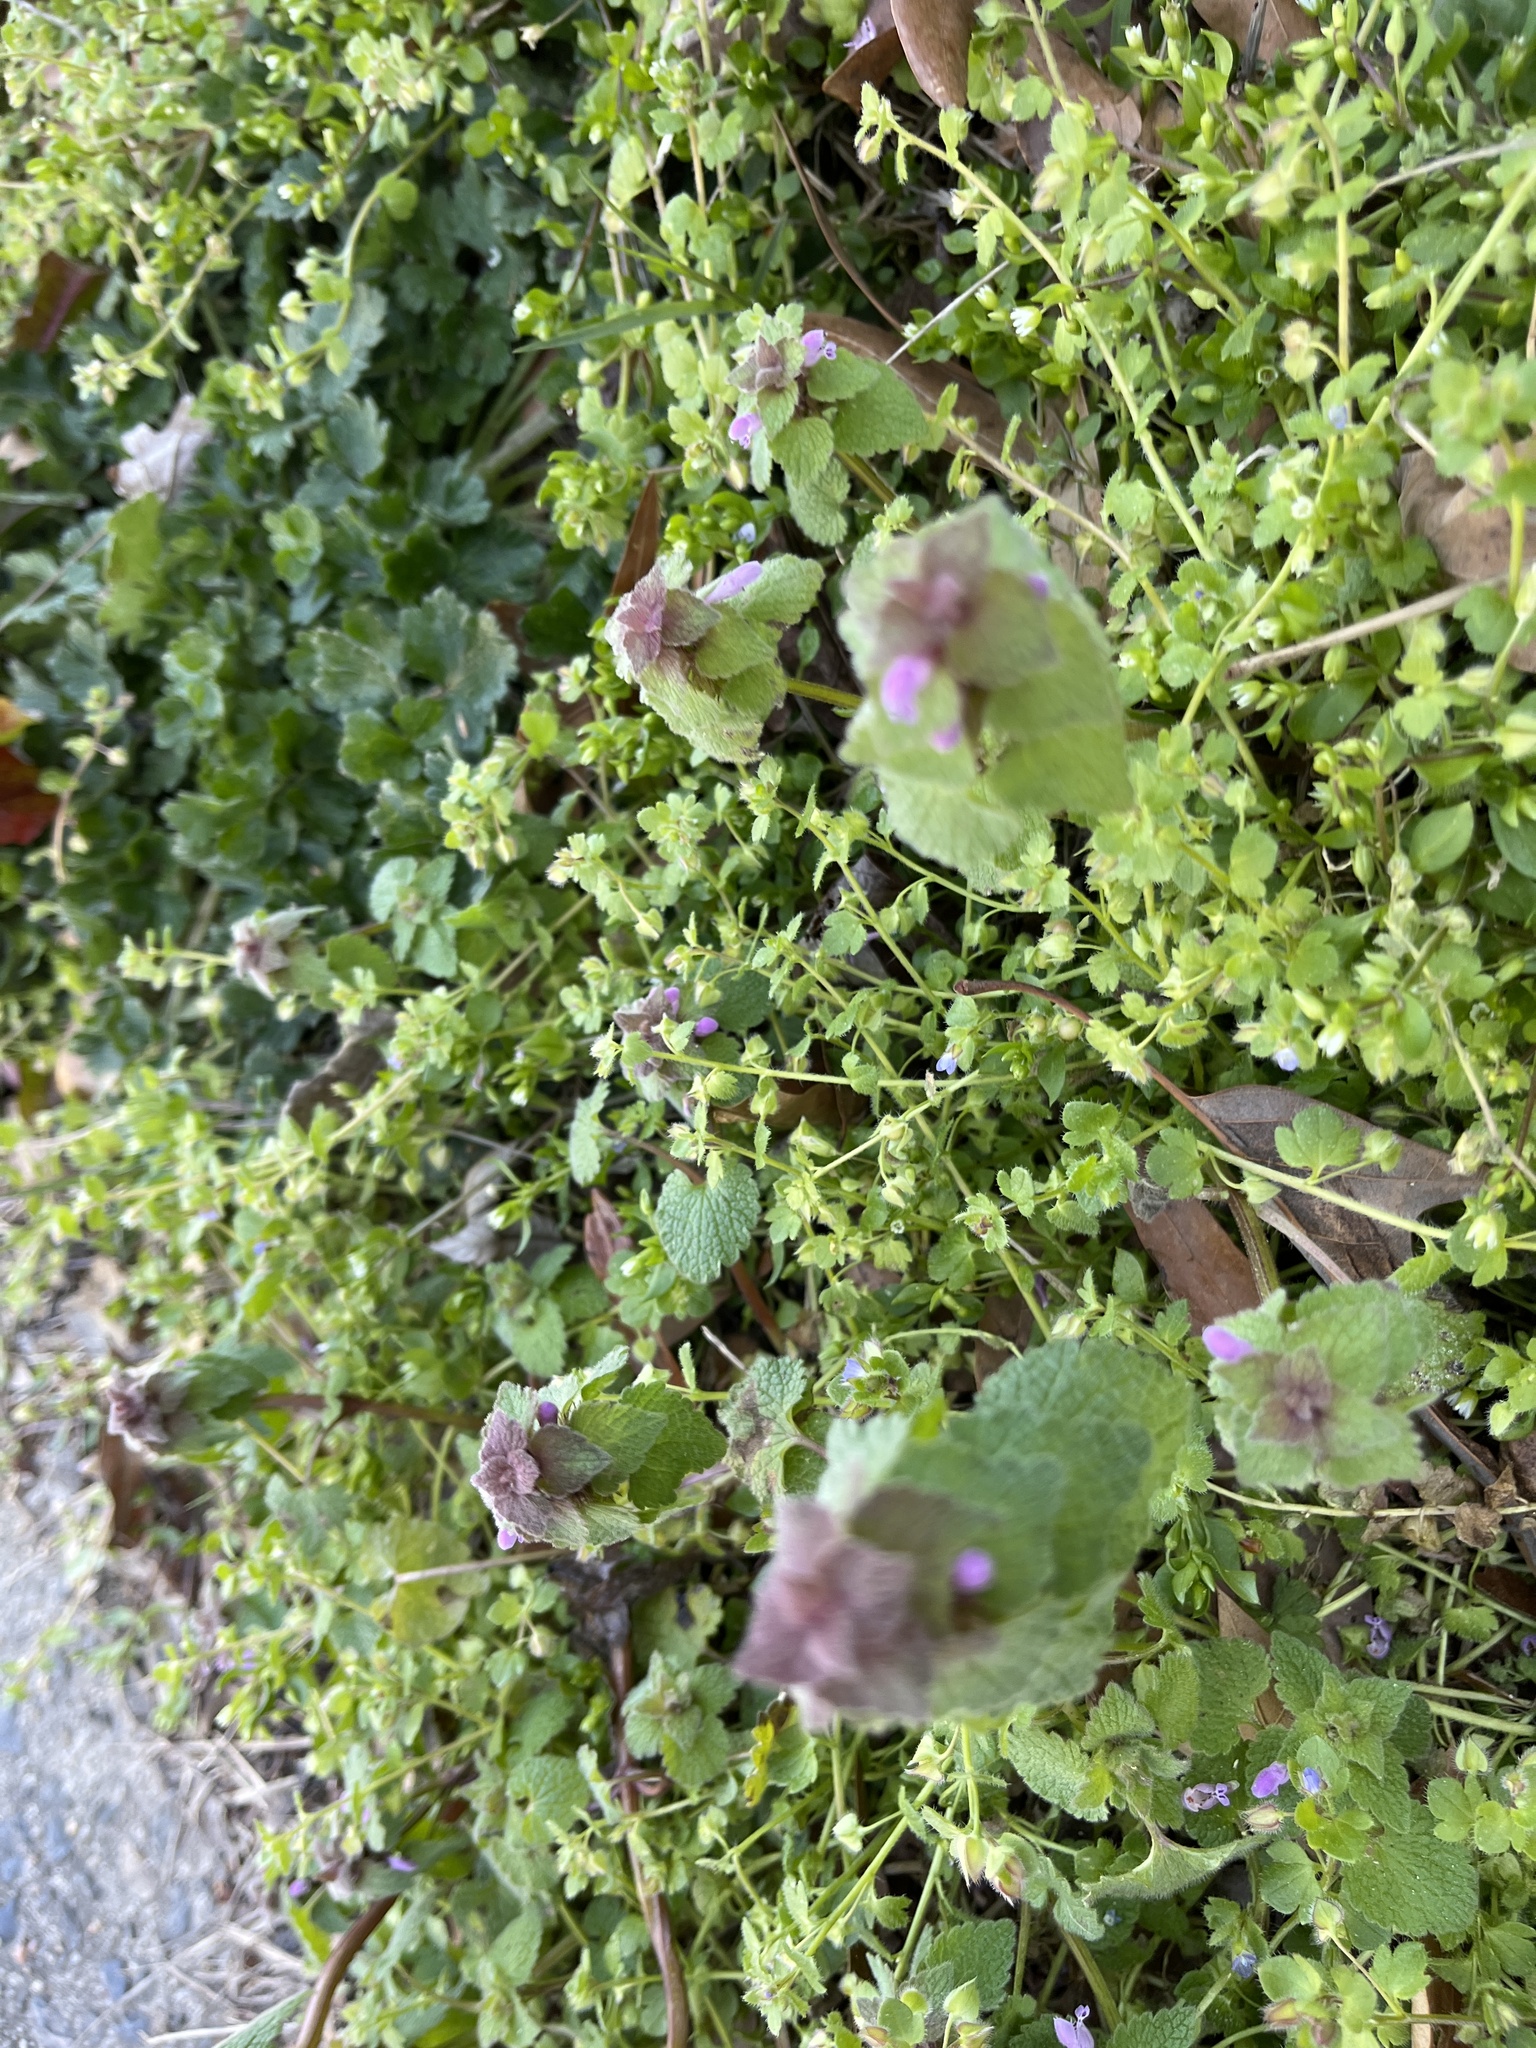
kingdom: Plantae
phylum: Tracheophyta
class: Magnoliopsida
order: Lamiales
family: Lamiaceae
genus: Lamium
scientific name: Lamium purpureum
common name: Red dead-nettle
